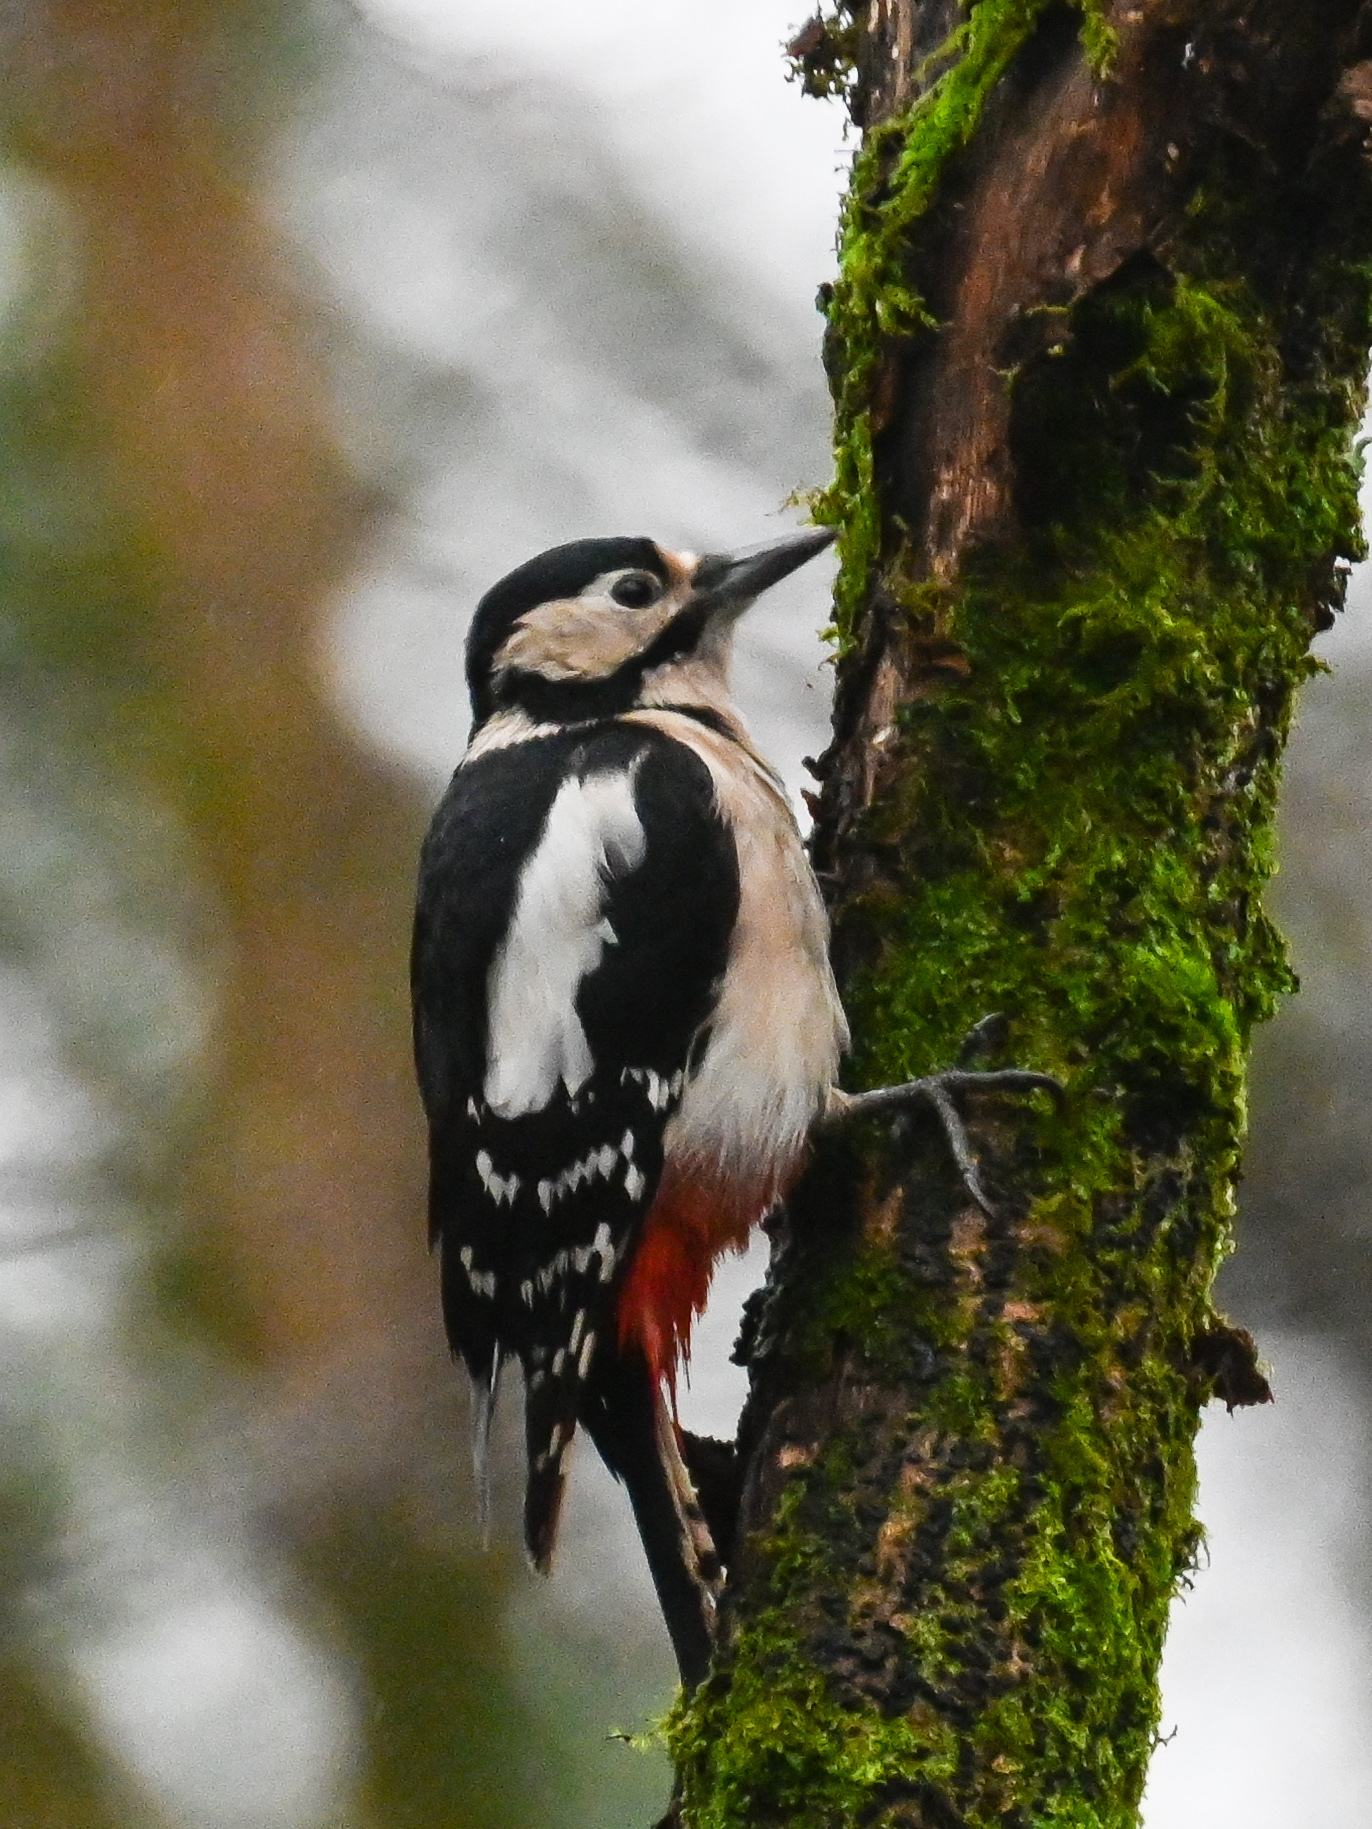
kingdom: Animalia
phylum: Chordata
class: Aves
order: Piciformes
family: Picidae
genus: Dendrocopos
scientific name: Dendrocopos major
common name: Great spotted woodpecker
